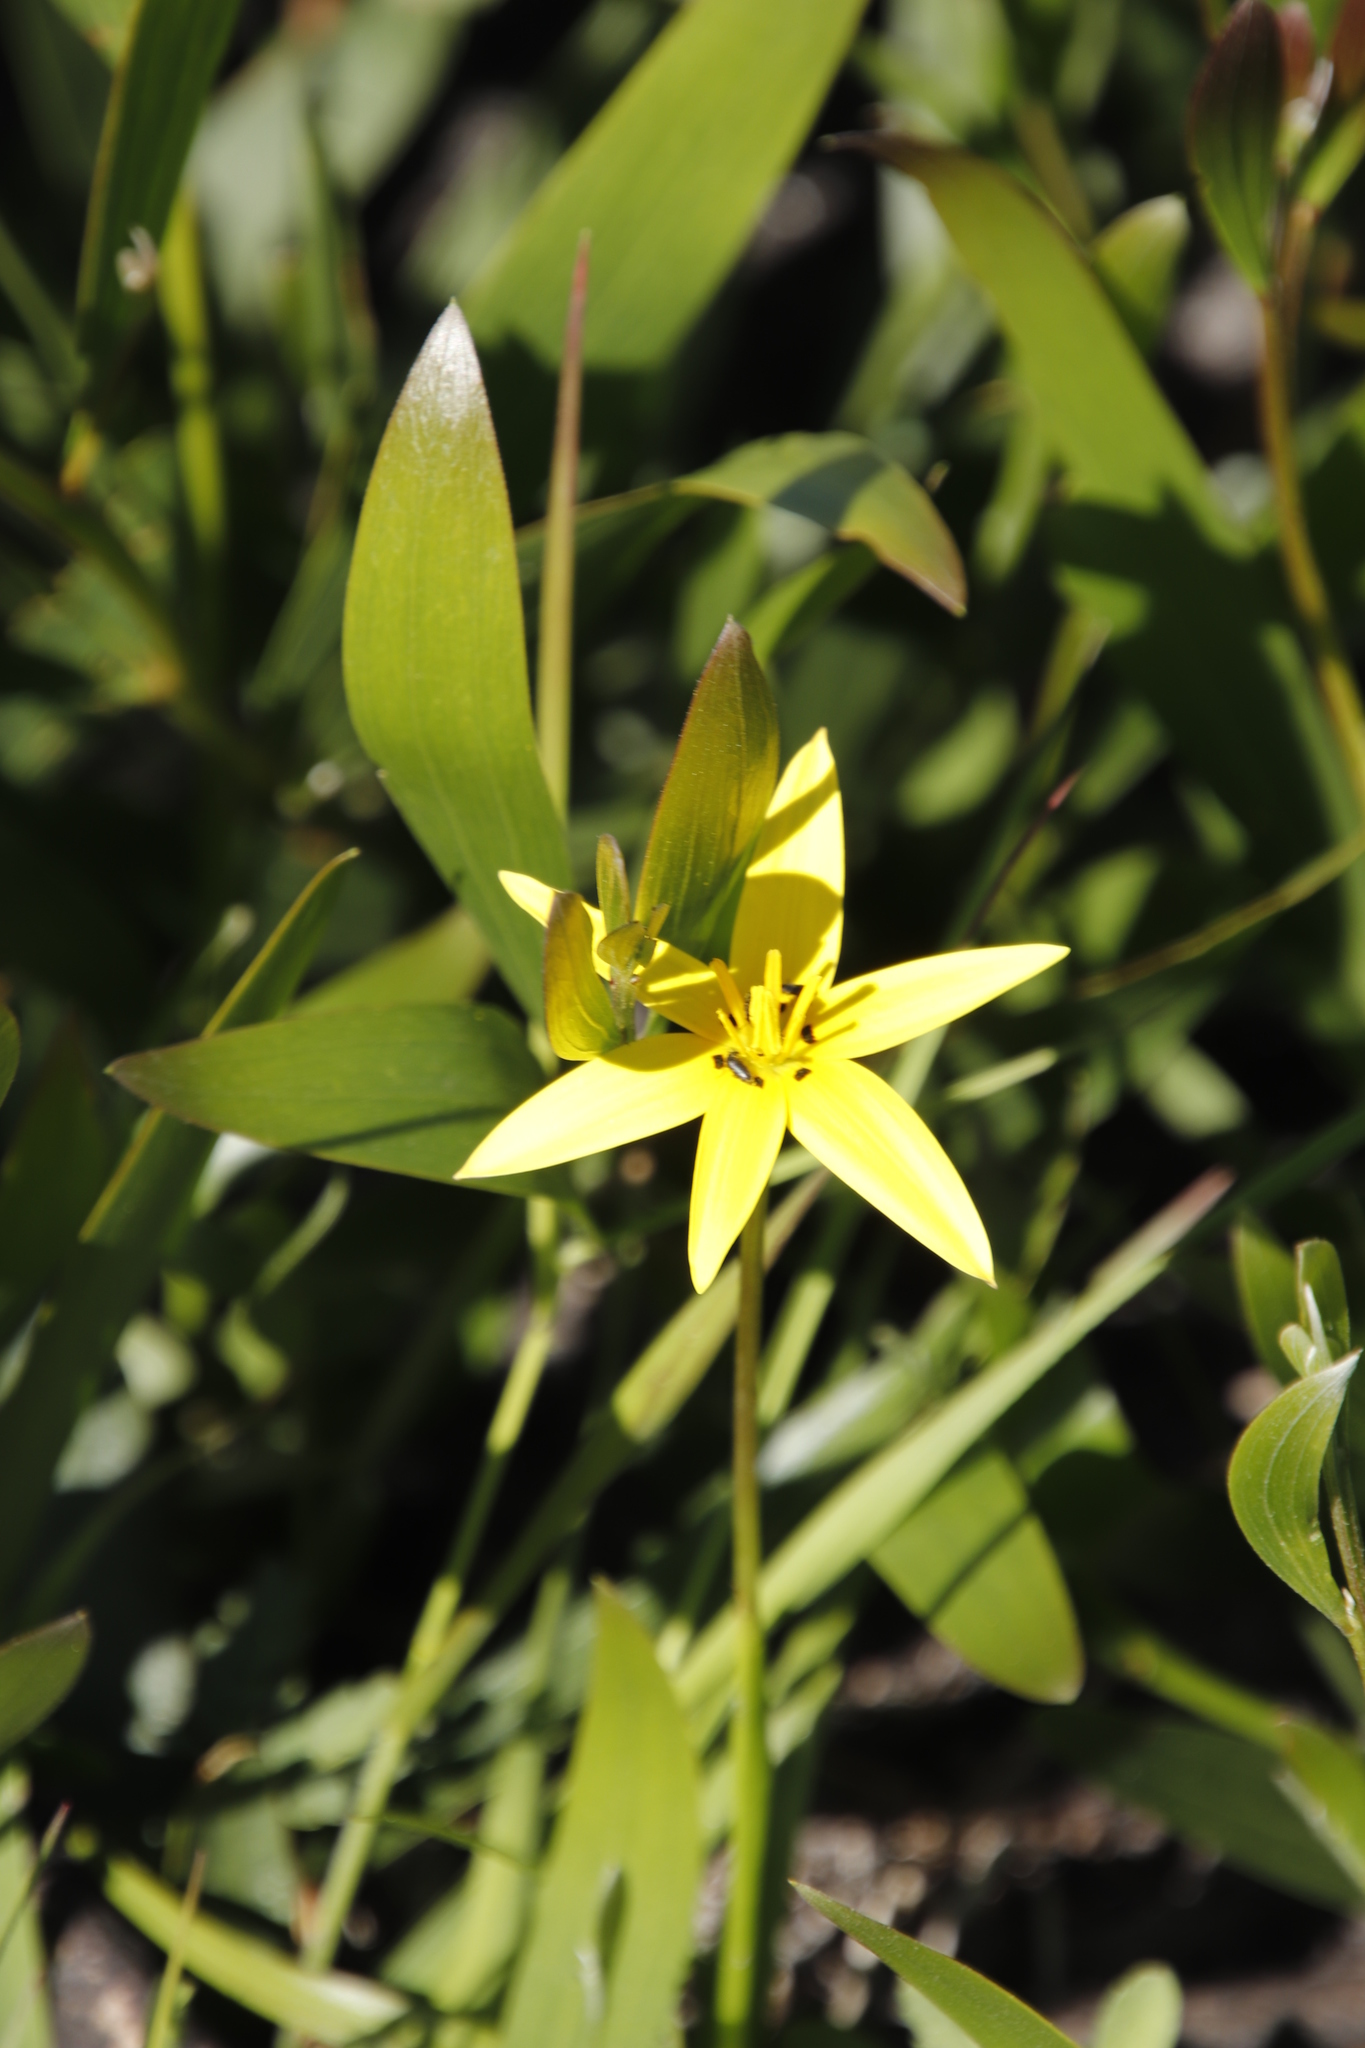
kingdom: Plantae
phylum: Tracheophyta
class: Liliopsida
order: Asparagales
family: Hypoxidaceae
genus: Pauridia
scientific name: Pauridia capensis
